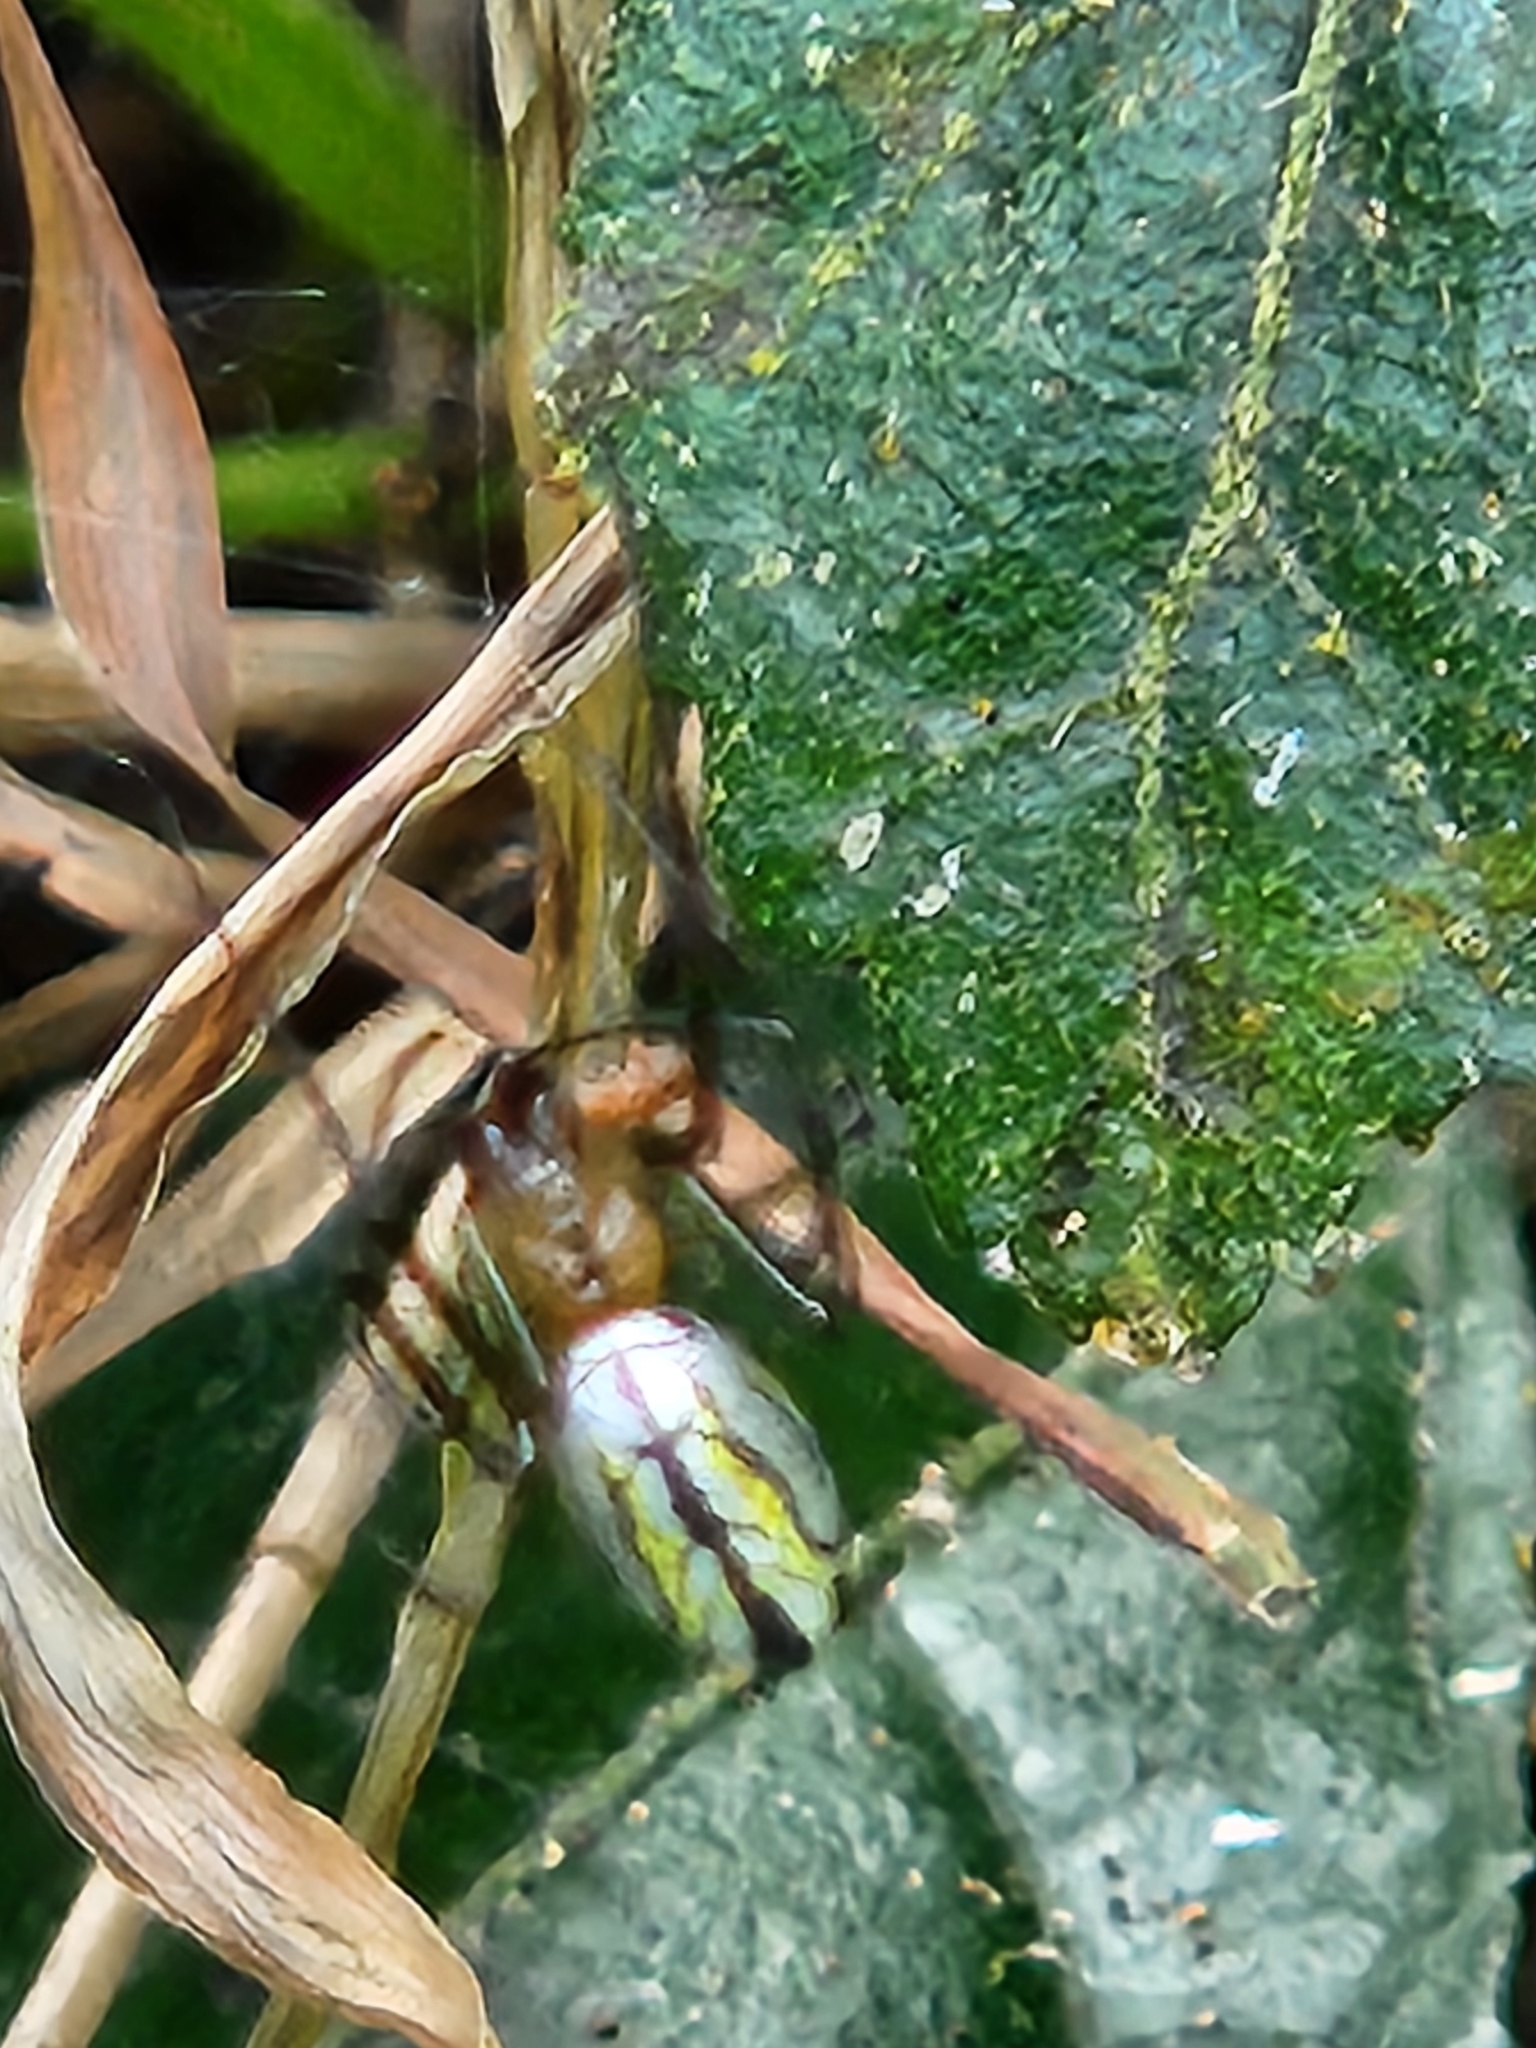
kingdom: Animalia
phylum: Arthropoda
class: Arachnida
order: Araneae
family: Tetragnathidae
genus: Leucauge
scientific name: Leucauge mariana
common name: Longjawed orb weavers
